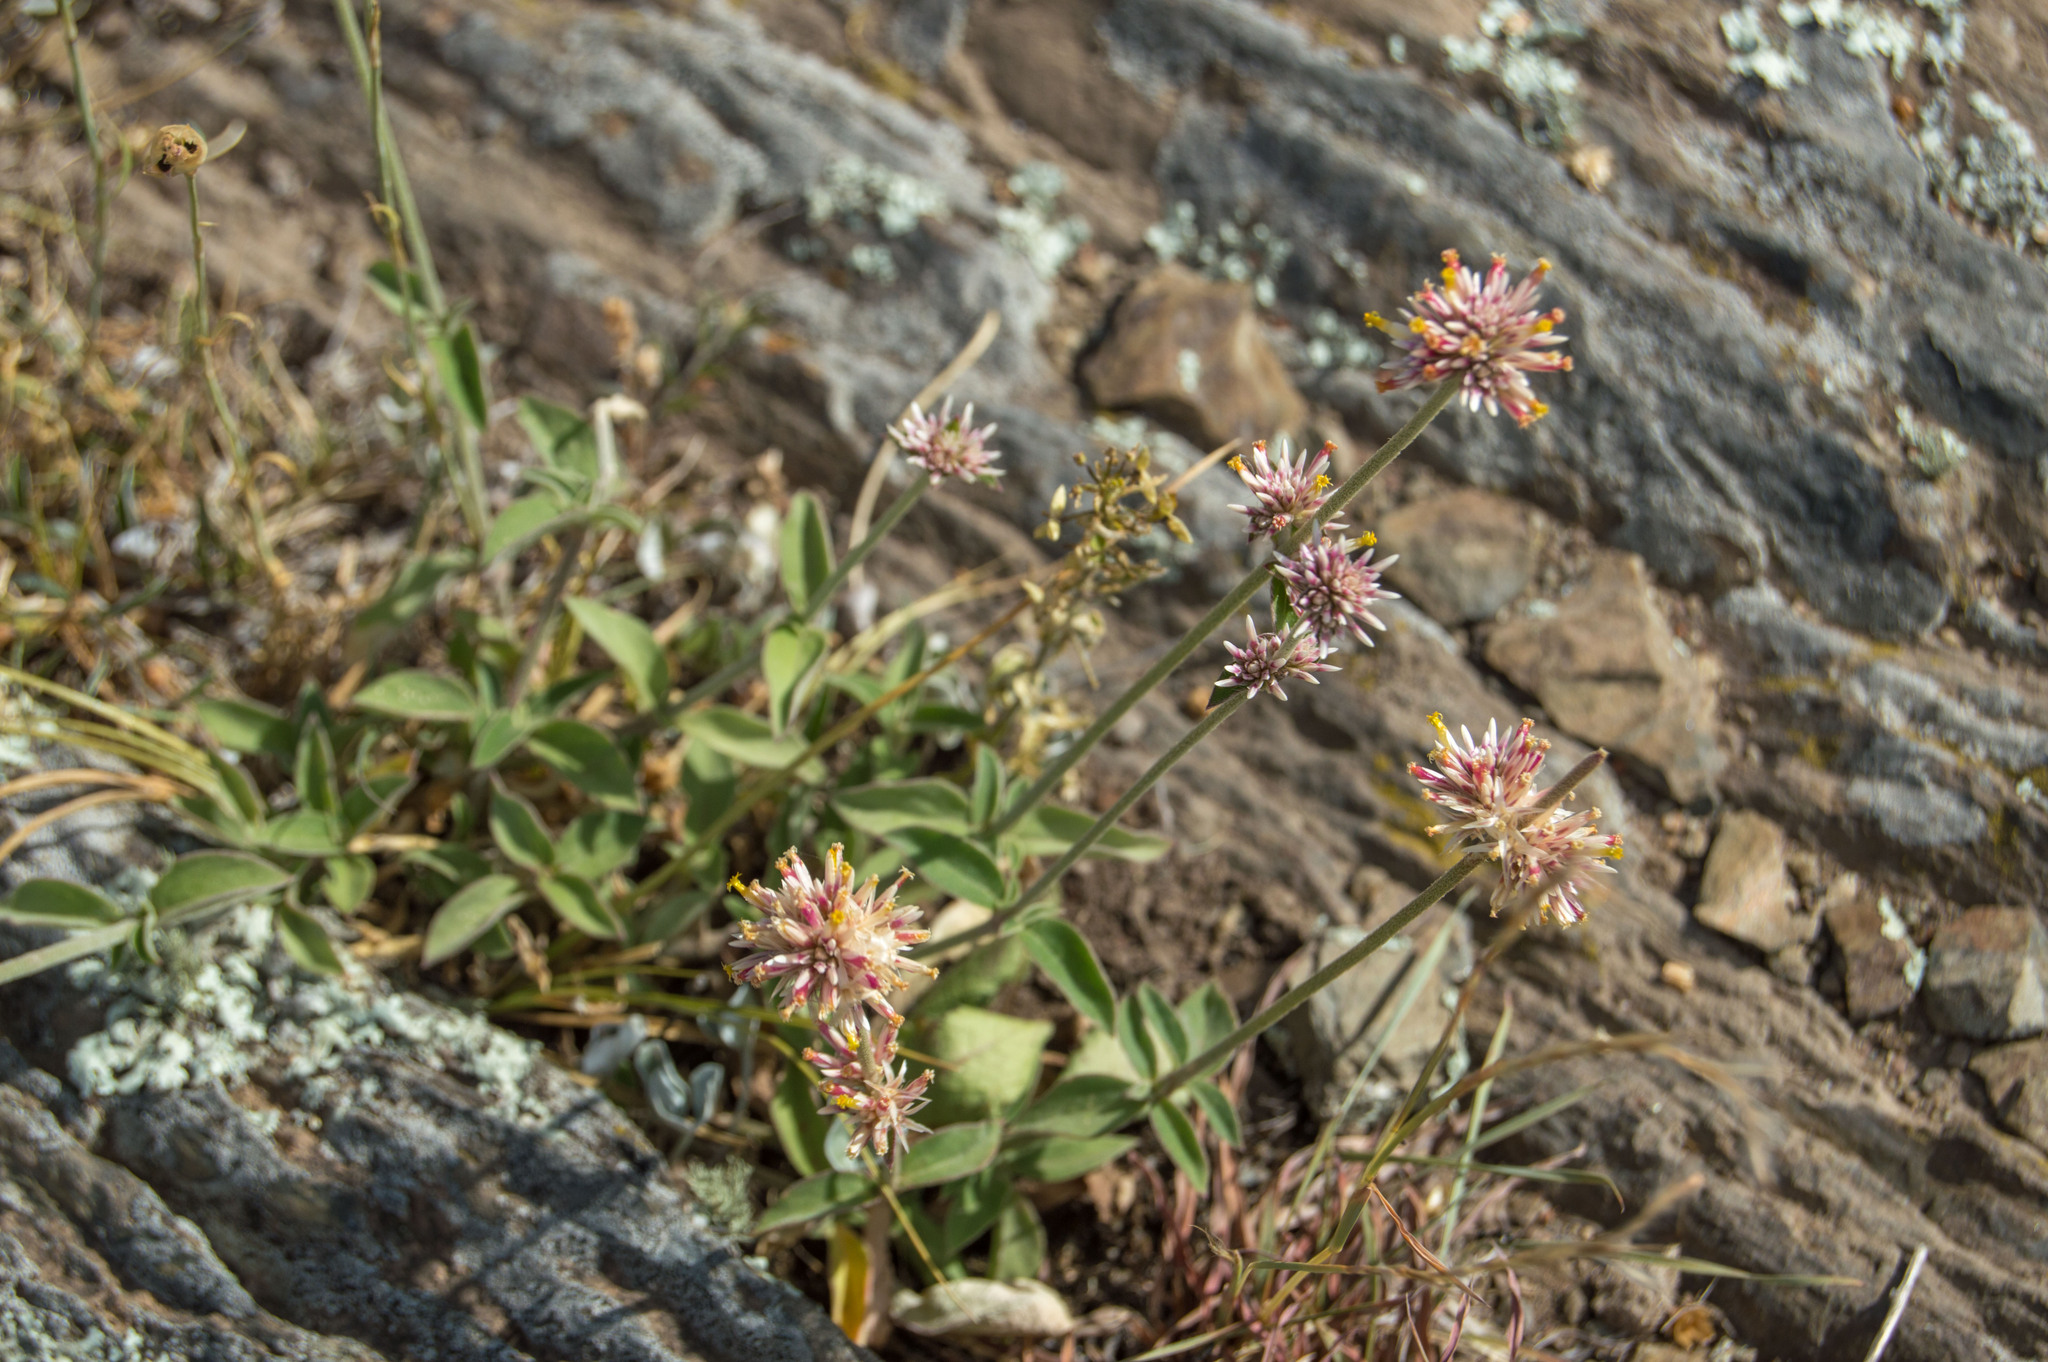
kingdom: Plantae
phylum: Tracheophyta
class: Magnoliopsida
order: Caryophyllales
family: Amaranthaceae
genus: Gomphrena
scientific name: Gomphrena pulchella
